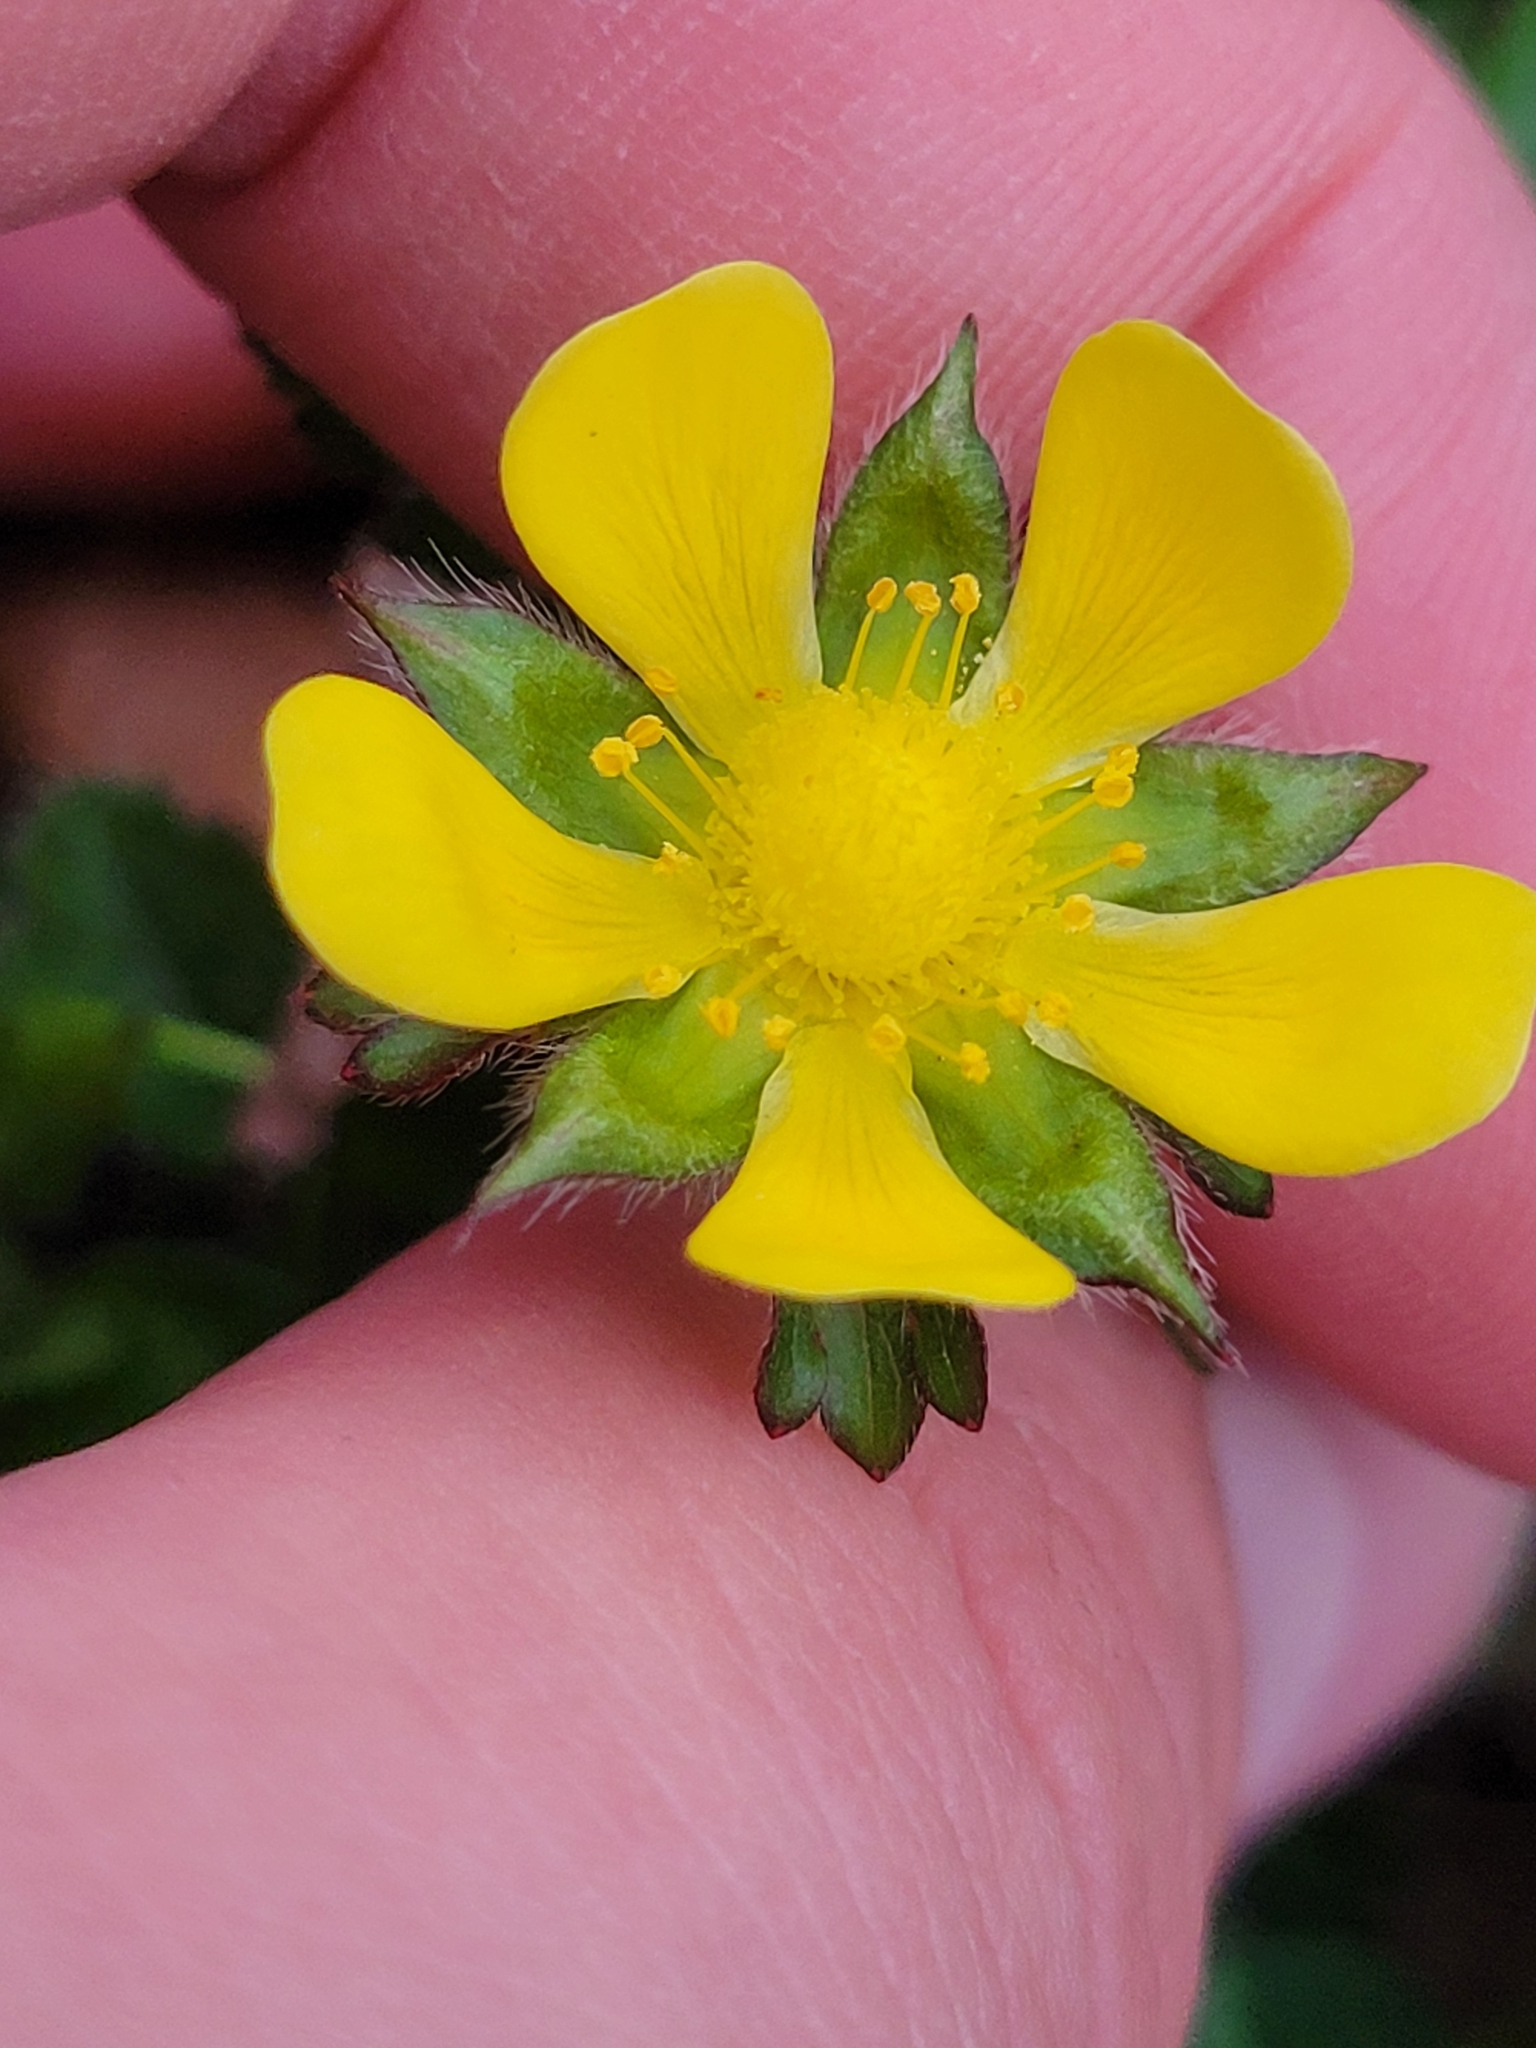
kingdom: Plantae
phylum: Tracheophyta
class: Magnoliopsida
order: Rosales
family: Rosaceae
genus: Potentilla
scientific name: Potentilla indica
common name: Yellow-flowered strawberry
